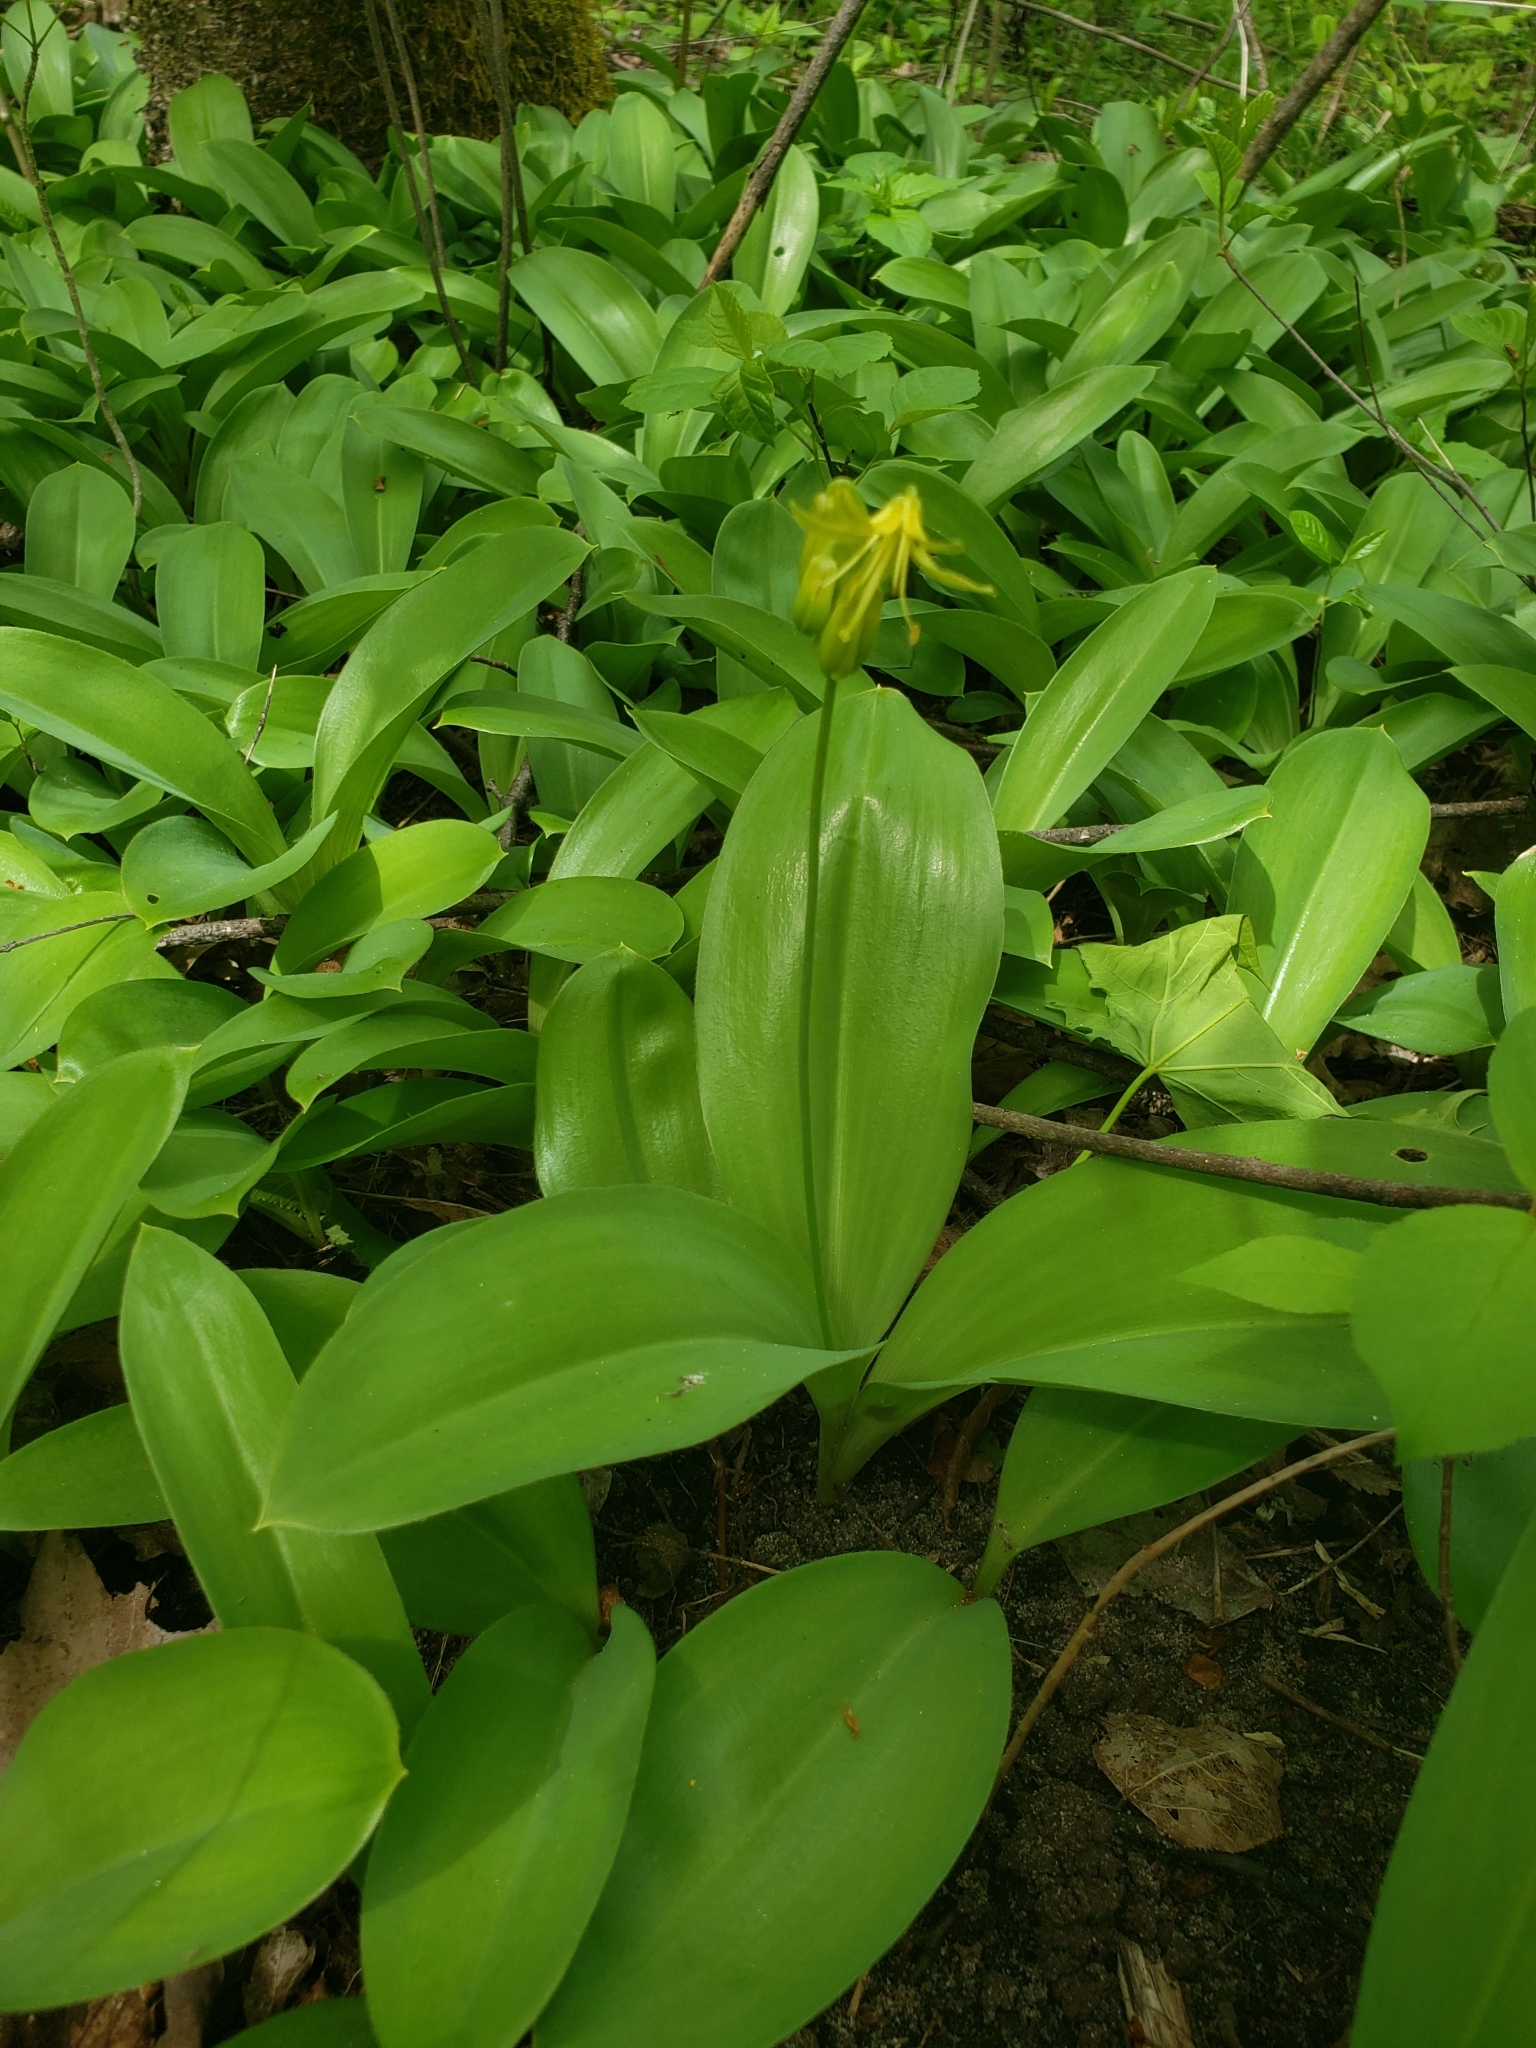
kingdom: Plantae
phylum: Tracheophyta
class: Liliopsida
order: Liliales
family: Liliaceae
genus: Clintonia
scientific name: Clintonia borealis
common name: Yellow clintonia
